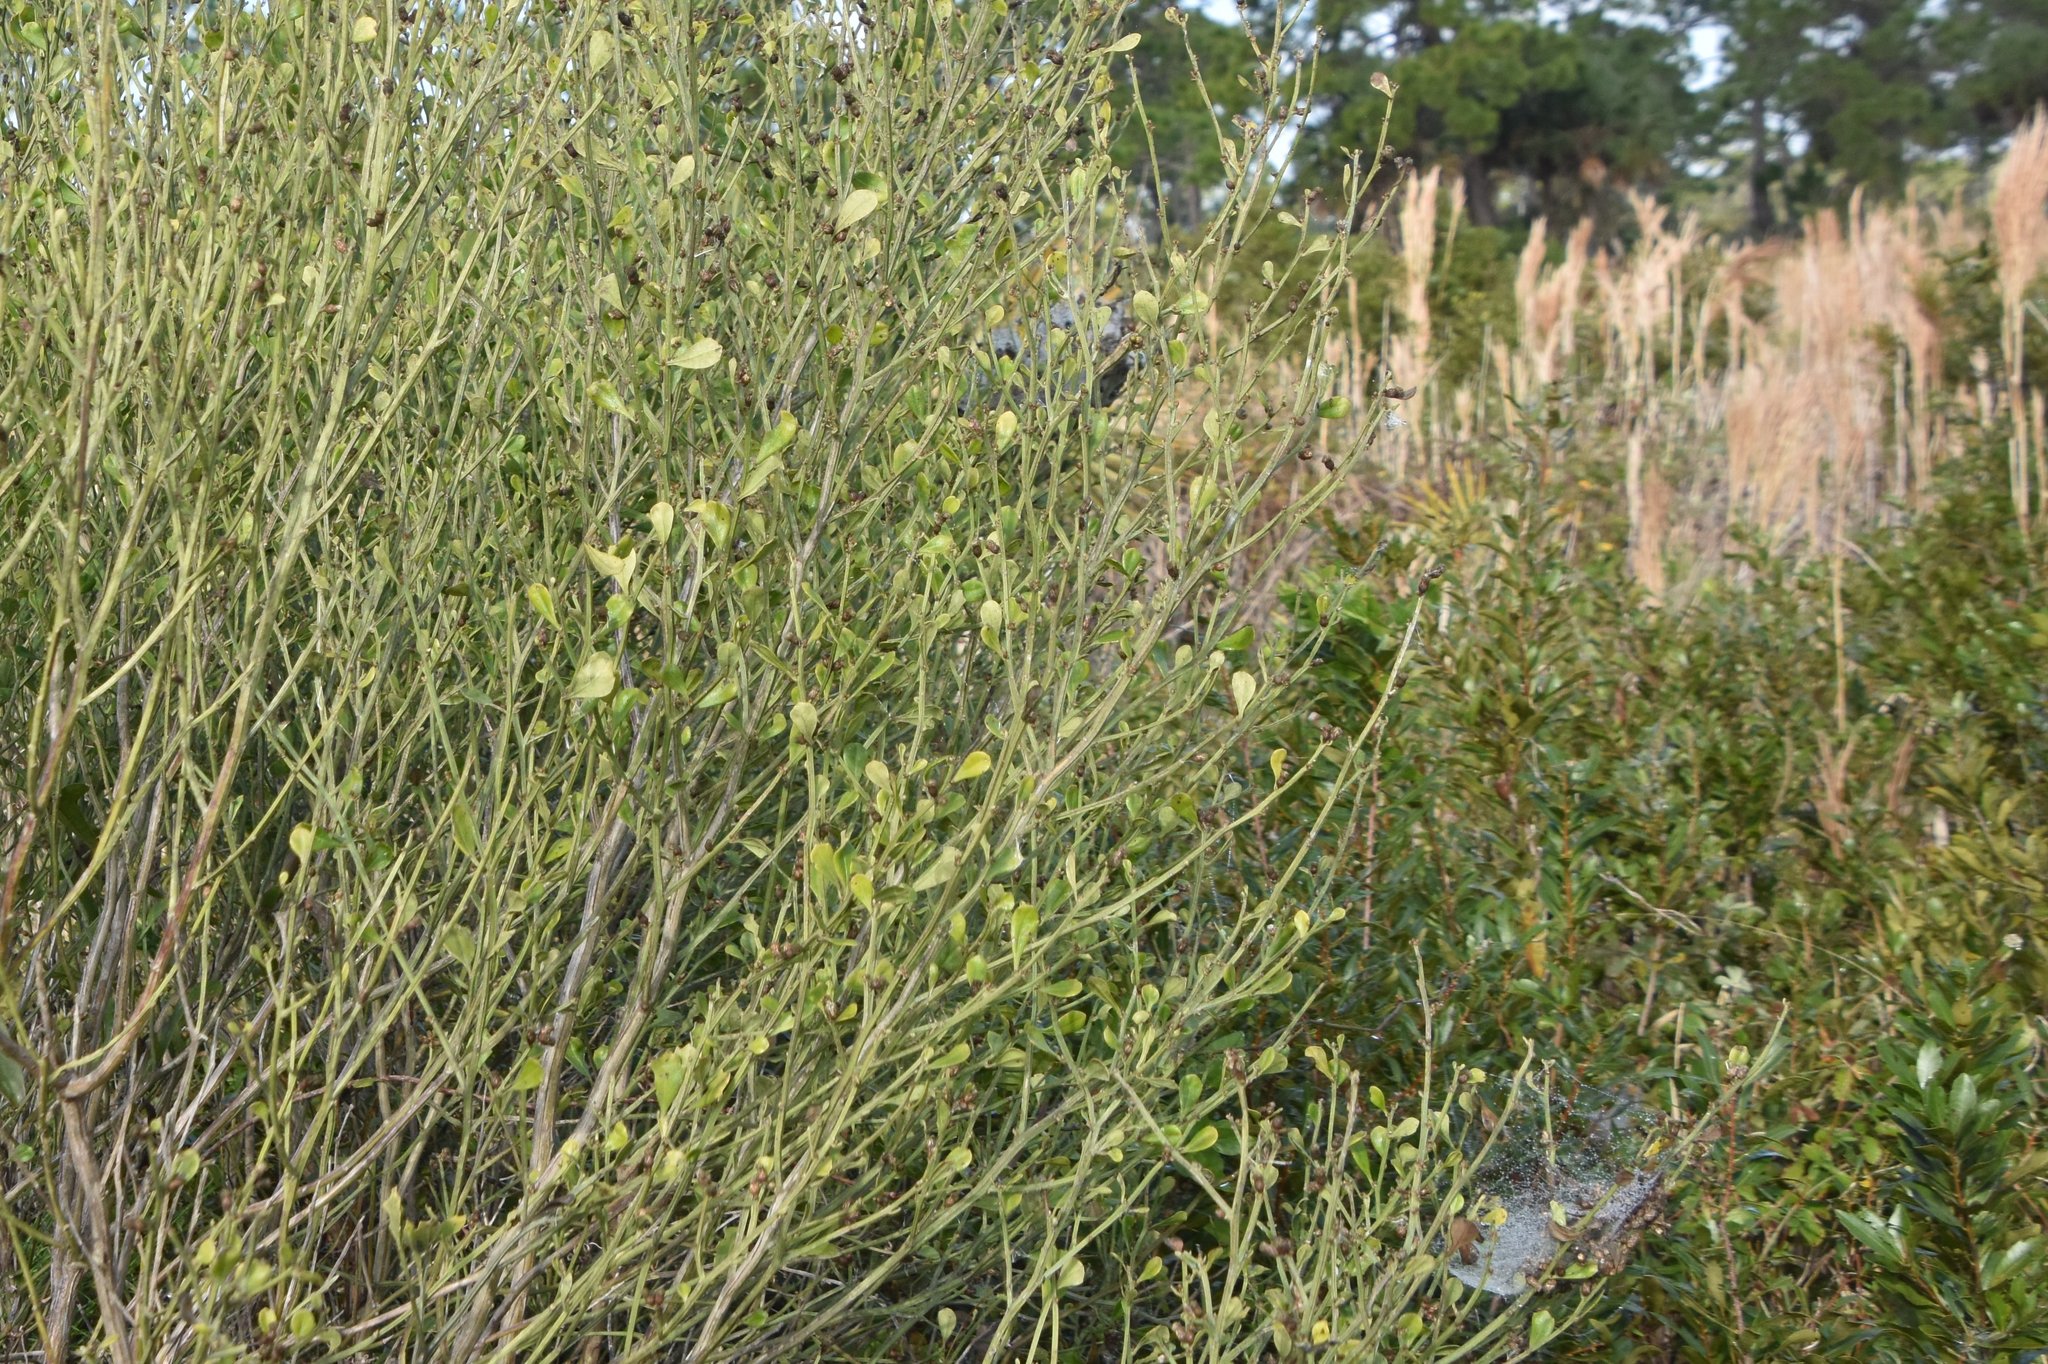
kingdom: Plantae
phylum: Tracheophyta
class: Magnoliopsida
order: Asterales
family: Asteraceae
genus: Baccharis
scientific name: Baccharis glomeruliflora
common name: Silverling groundsel bush
